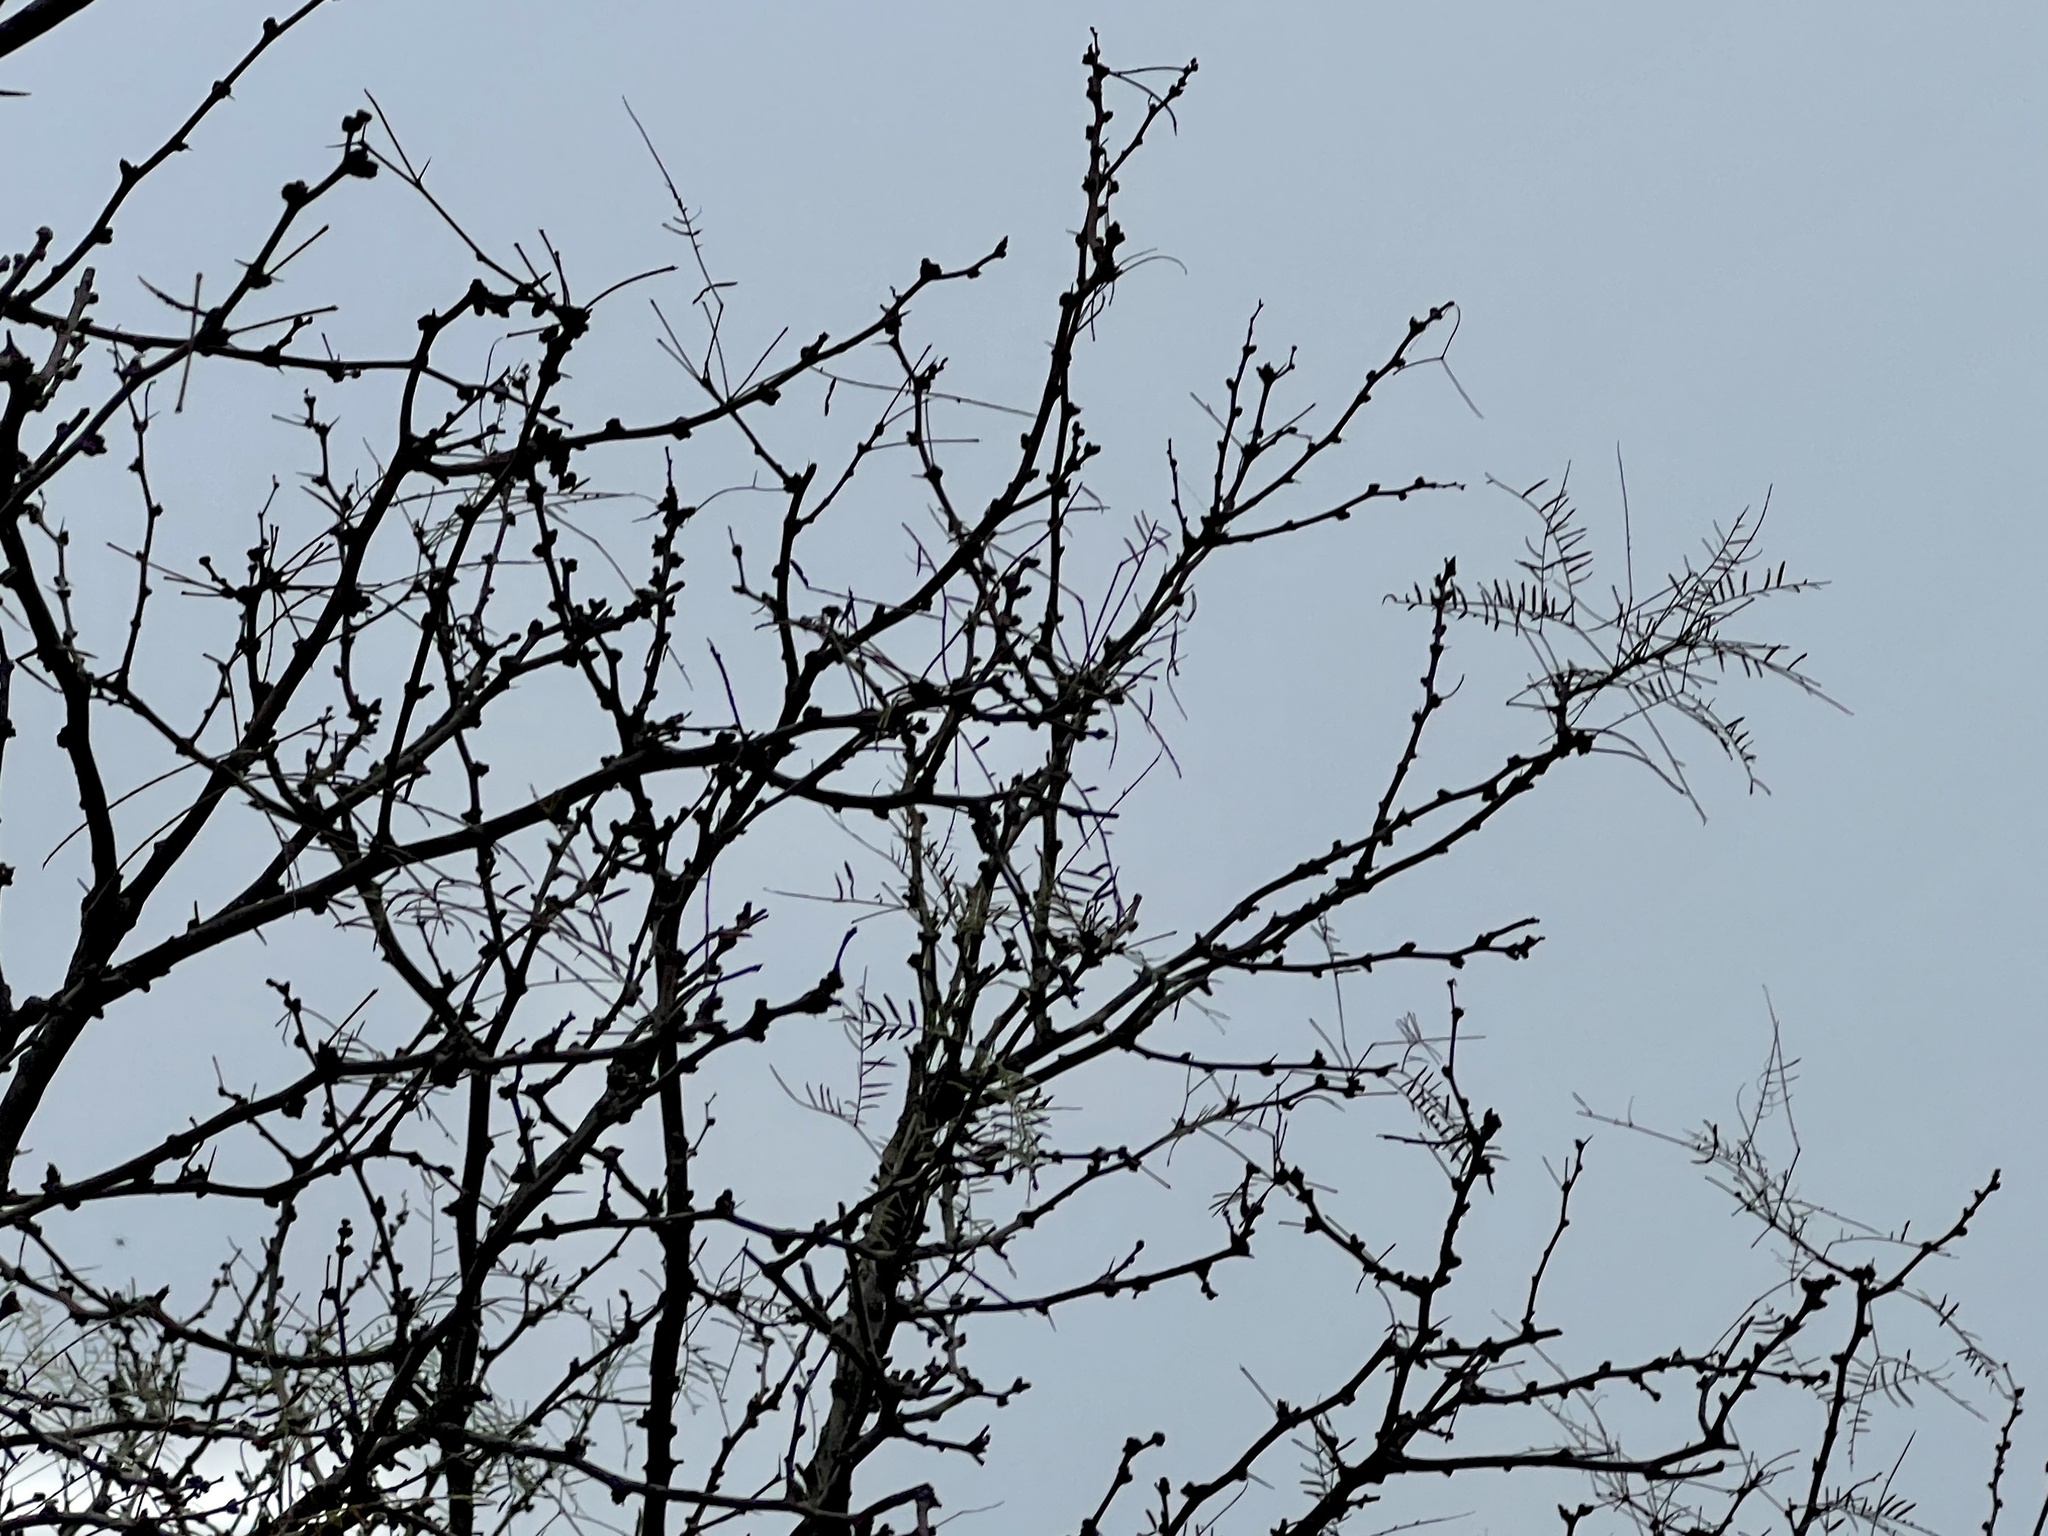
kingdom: Plantae
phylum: Tracheophyta
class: Magnoliopsida
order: Fabales
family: Fabaceae
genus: Prosopis
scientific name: Prosopis glandulosa
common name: Honey mesquite
